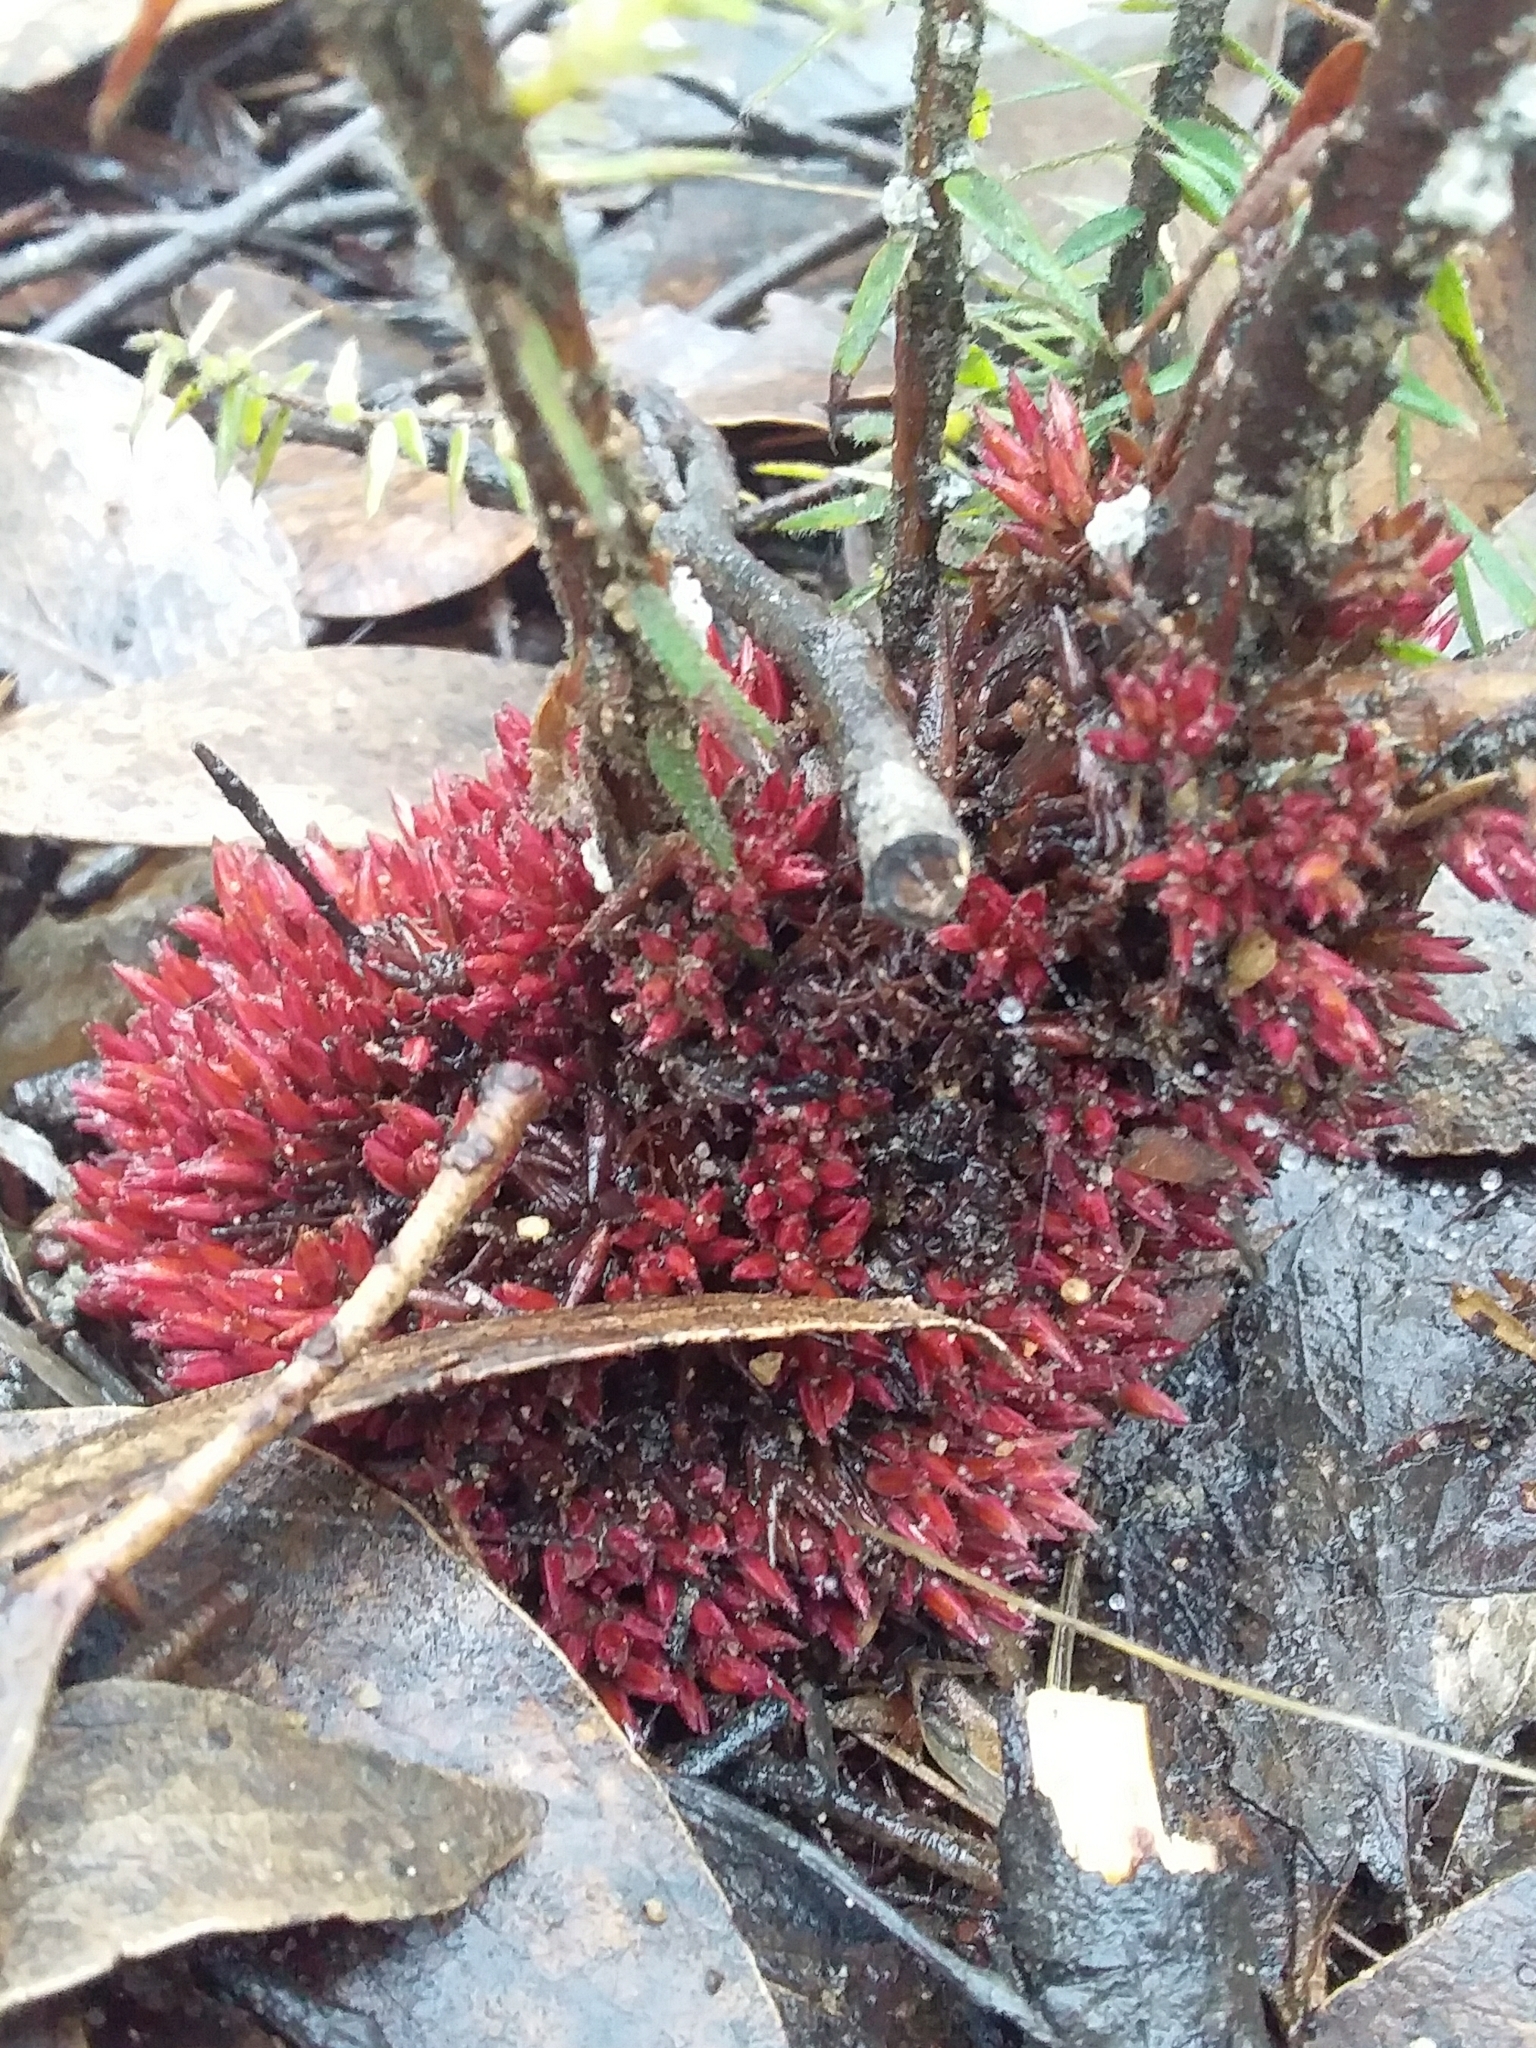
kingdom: Plantae
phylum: Tracheophyta
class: Magnoliopsida
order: Ericales
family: Ericaceae
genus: Acrotriche
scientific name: Acrotriche fasciculiflora
